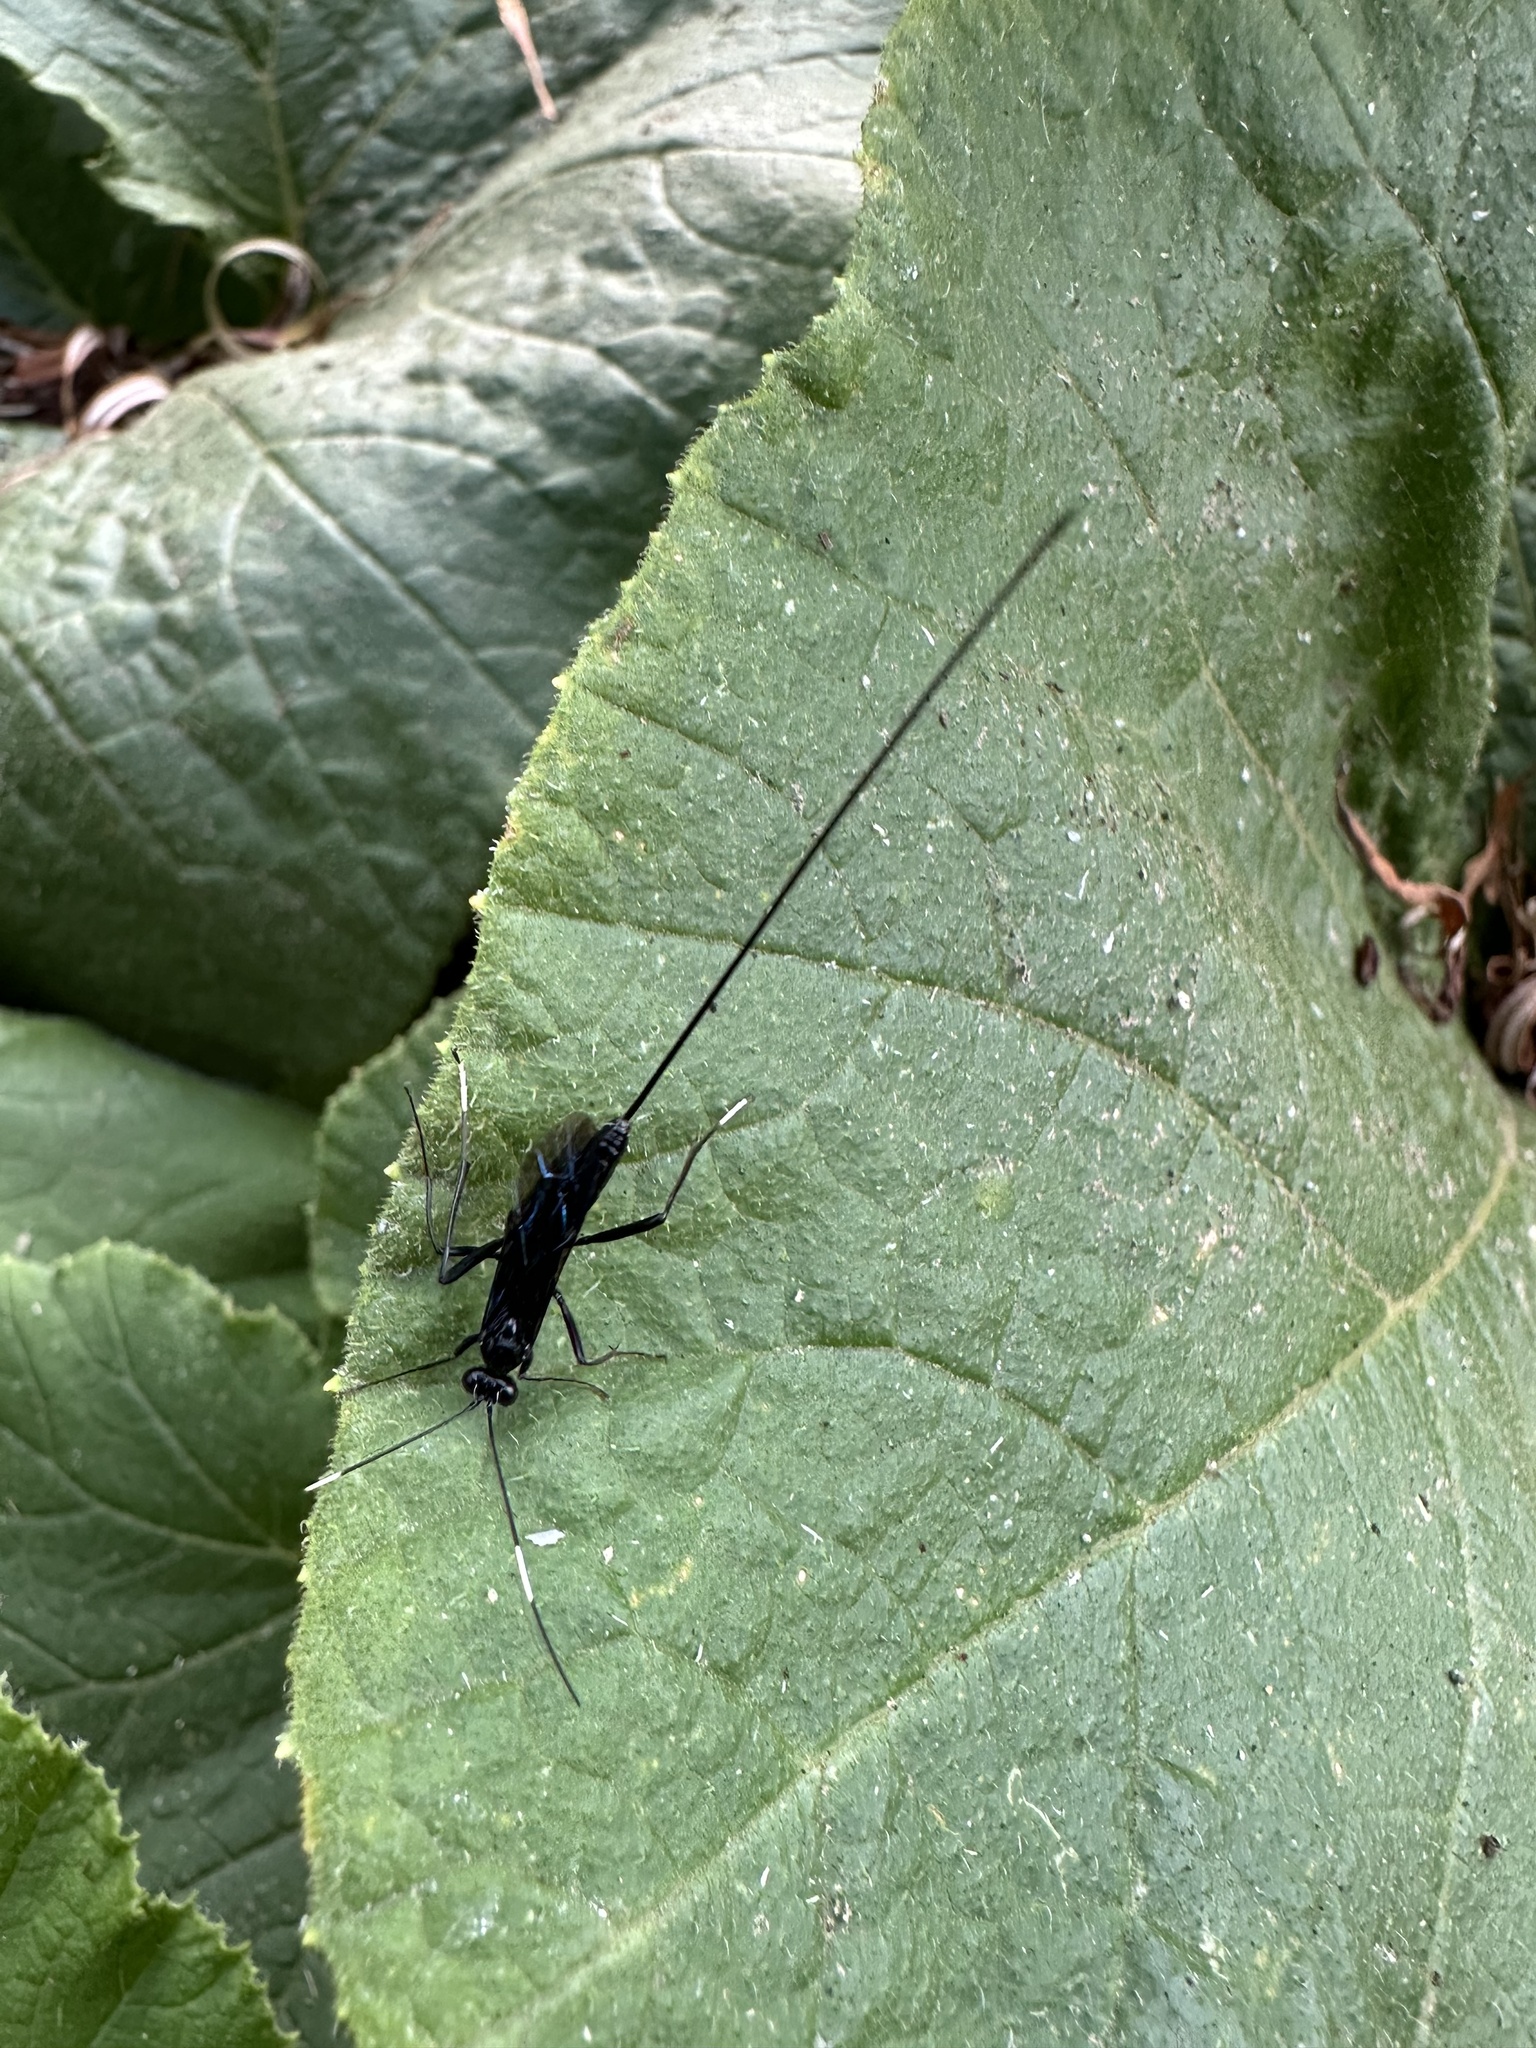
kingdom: Animalia
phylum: Arthropoda
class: Insecta
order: Hymenoptera
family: Ichneumonidae
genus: Dotocryptus
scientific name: Dotocryptus bellicosus
